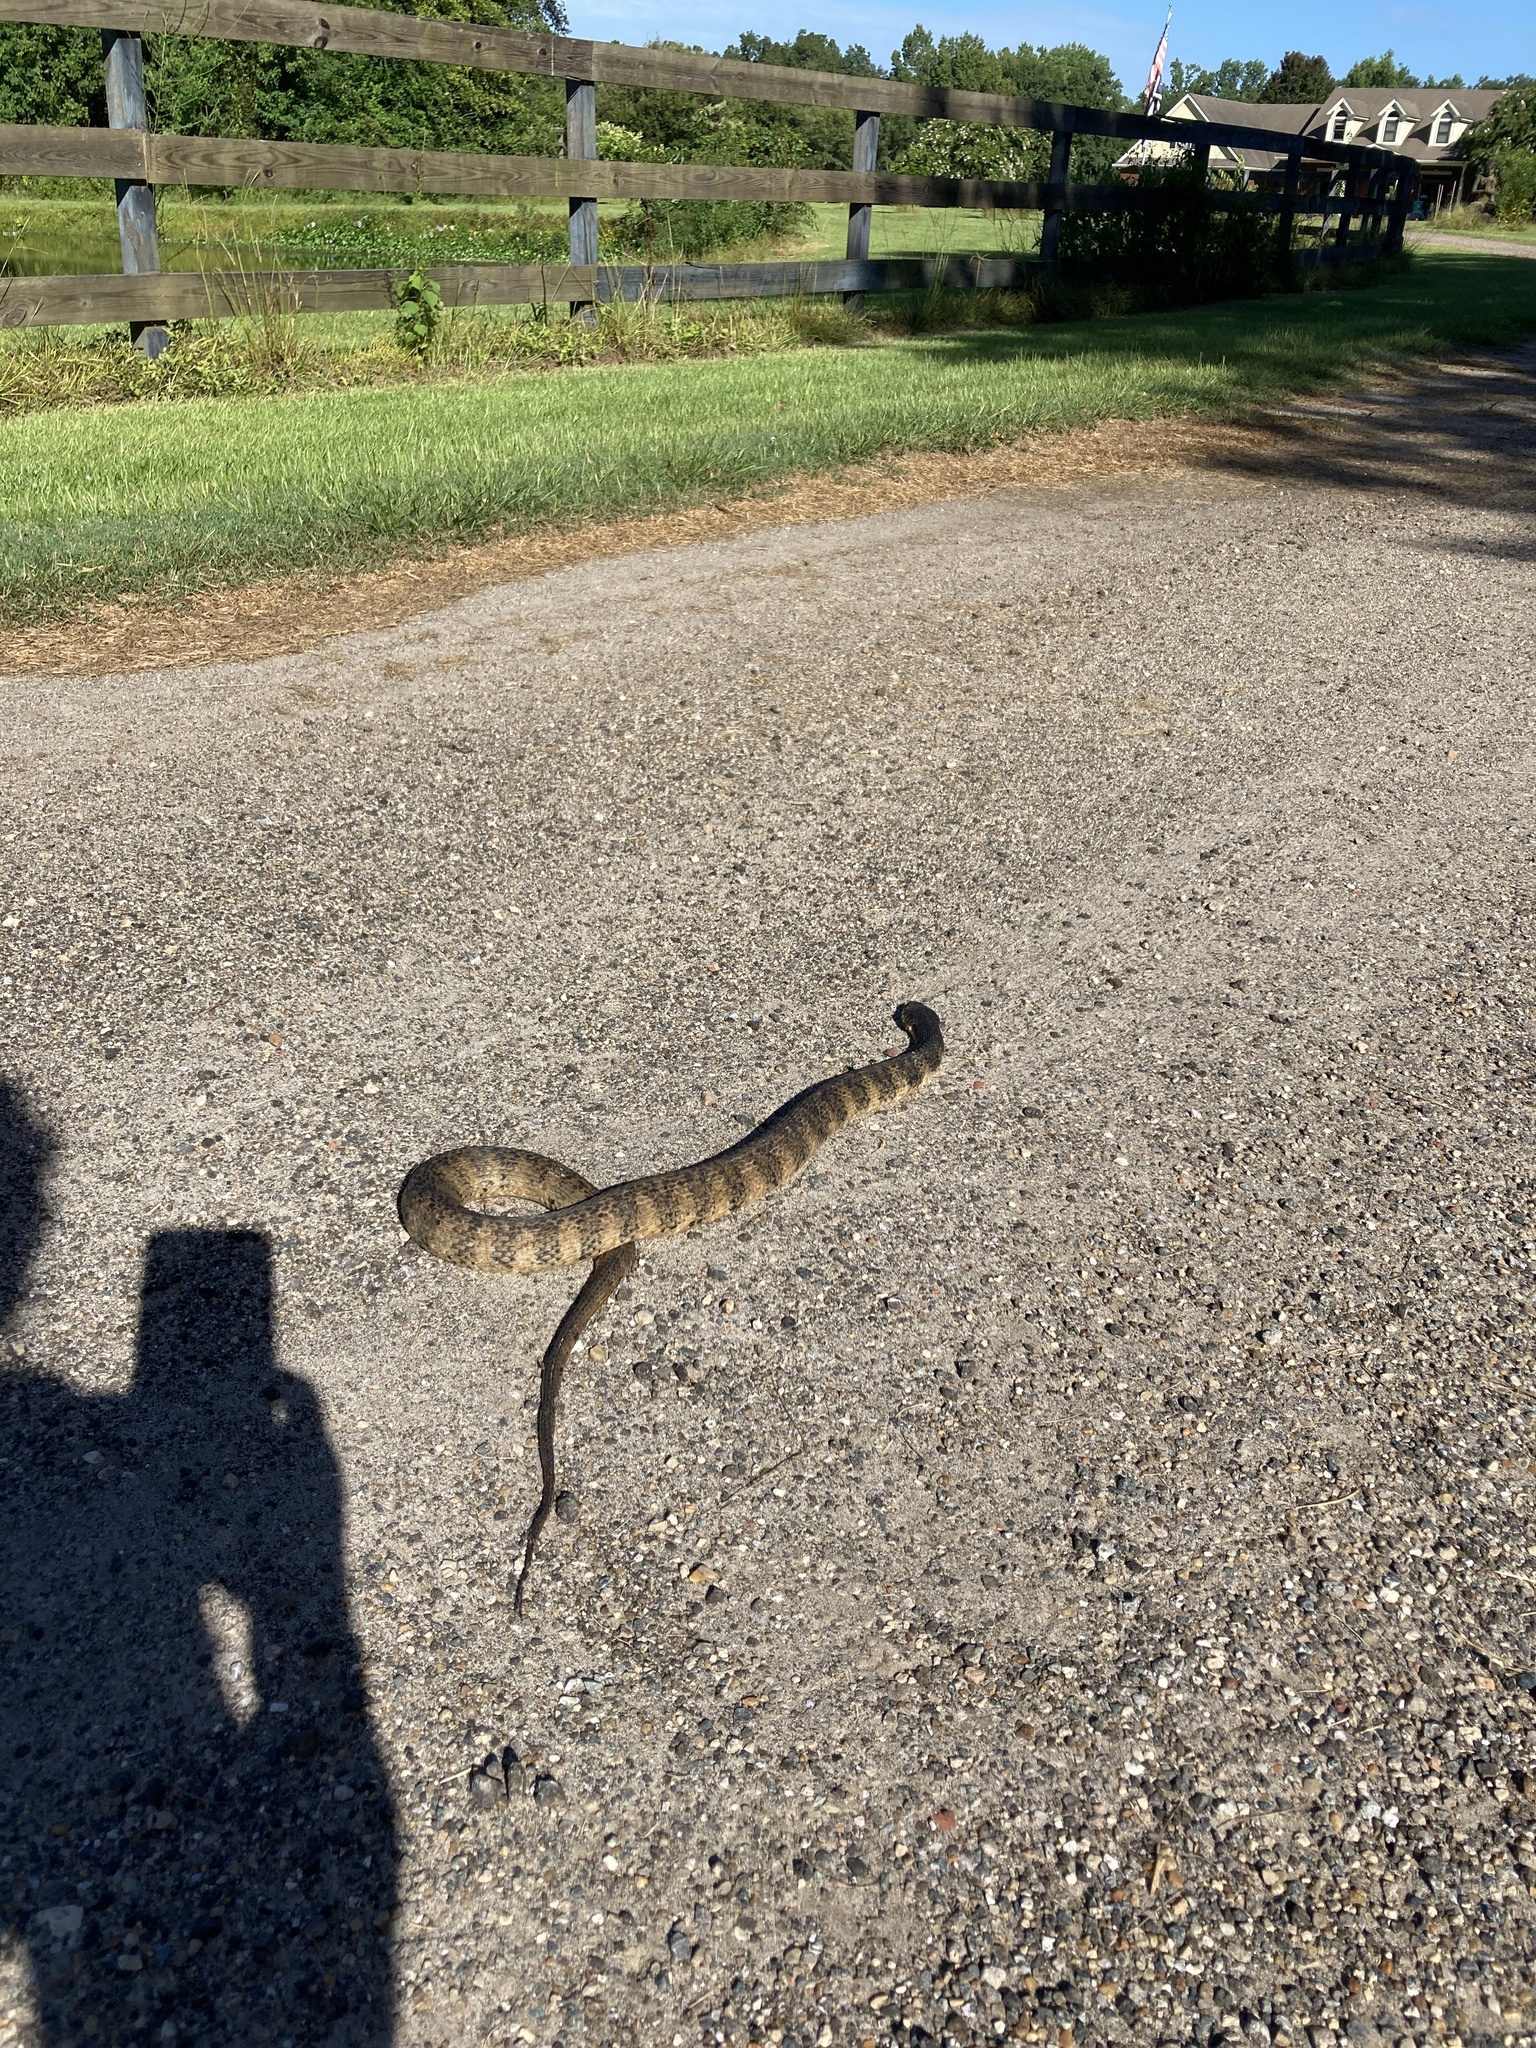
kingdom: Animalia
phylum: Chordata
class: Squamata
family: Colubridae
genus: Nerodia
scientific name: Nerodia fasciata
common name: Southern water snake
